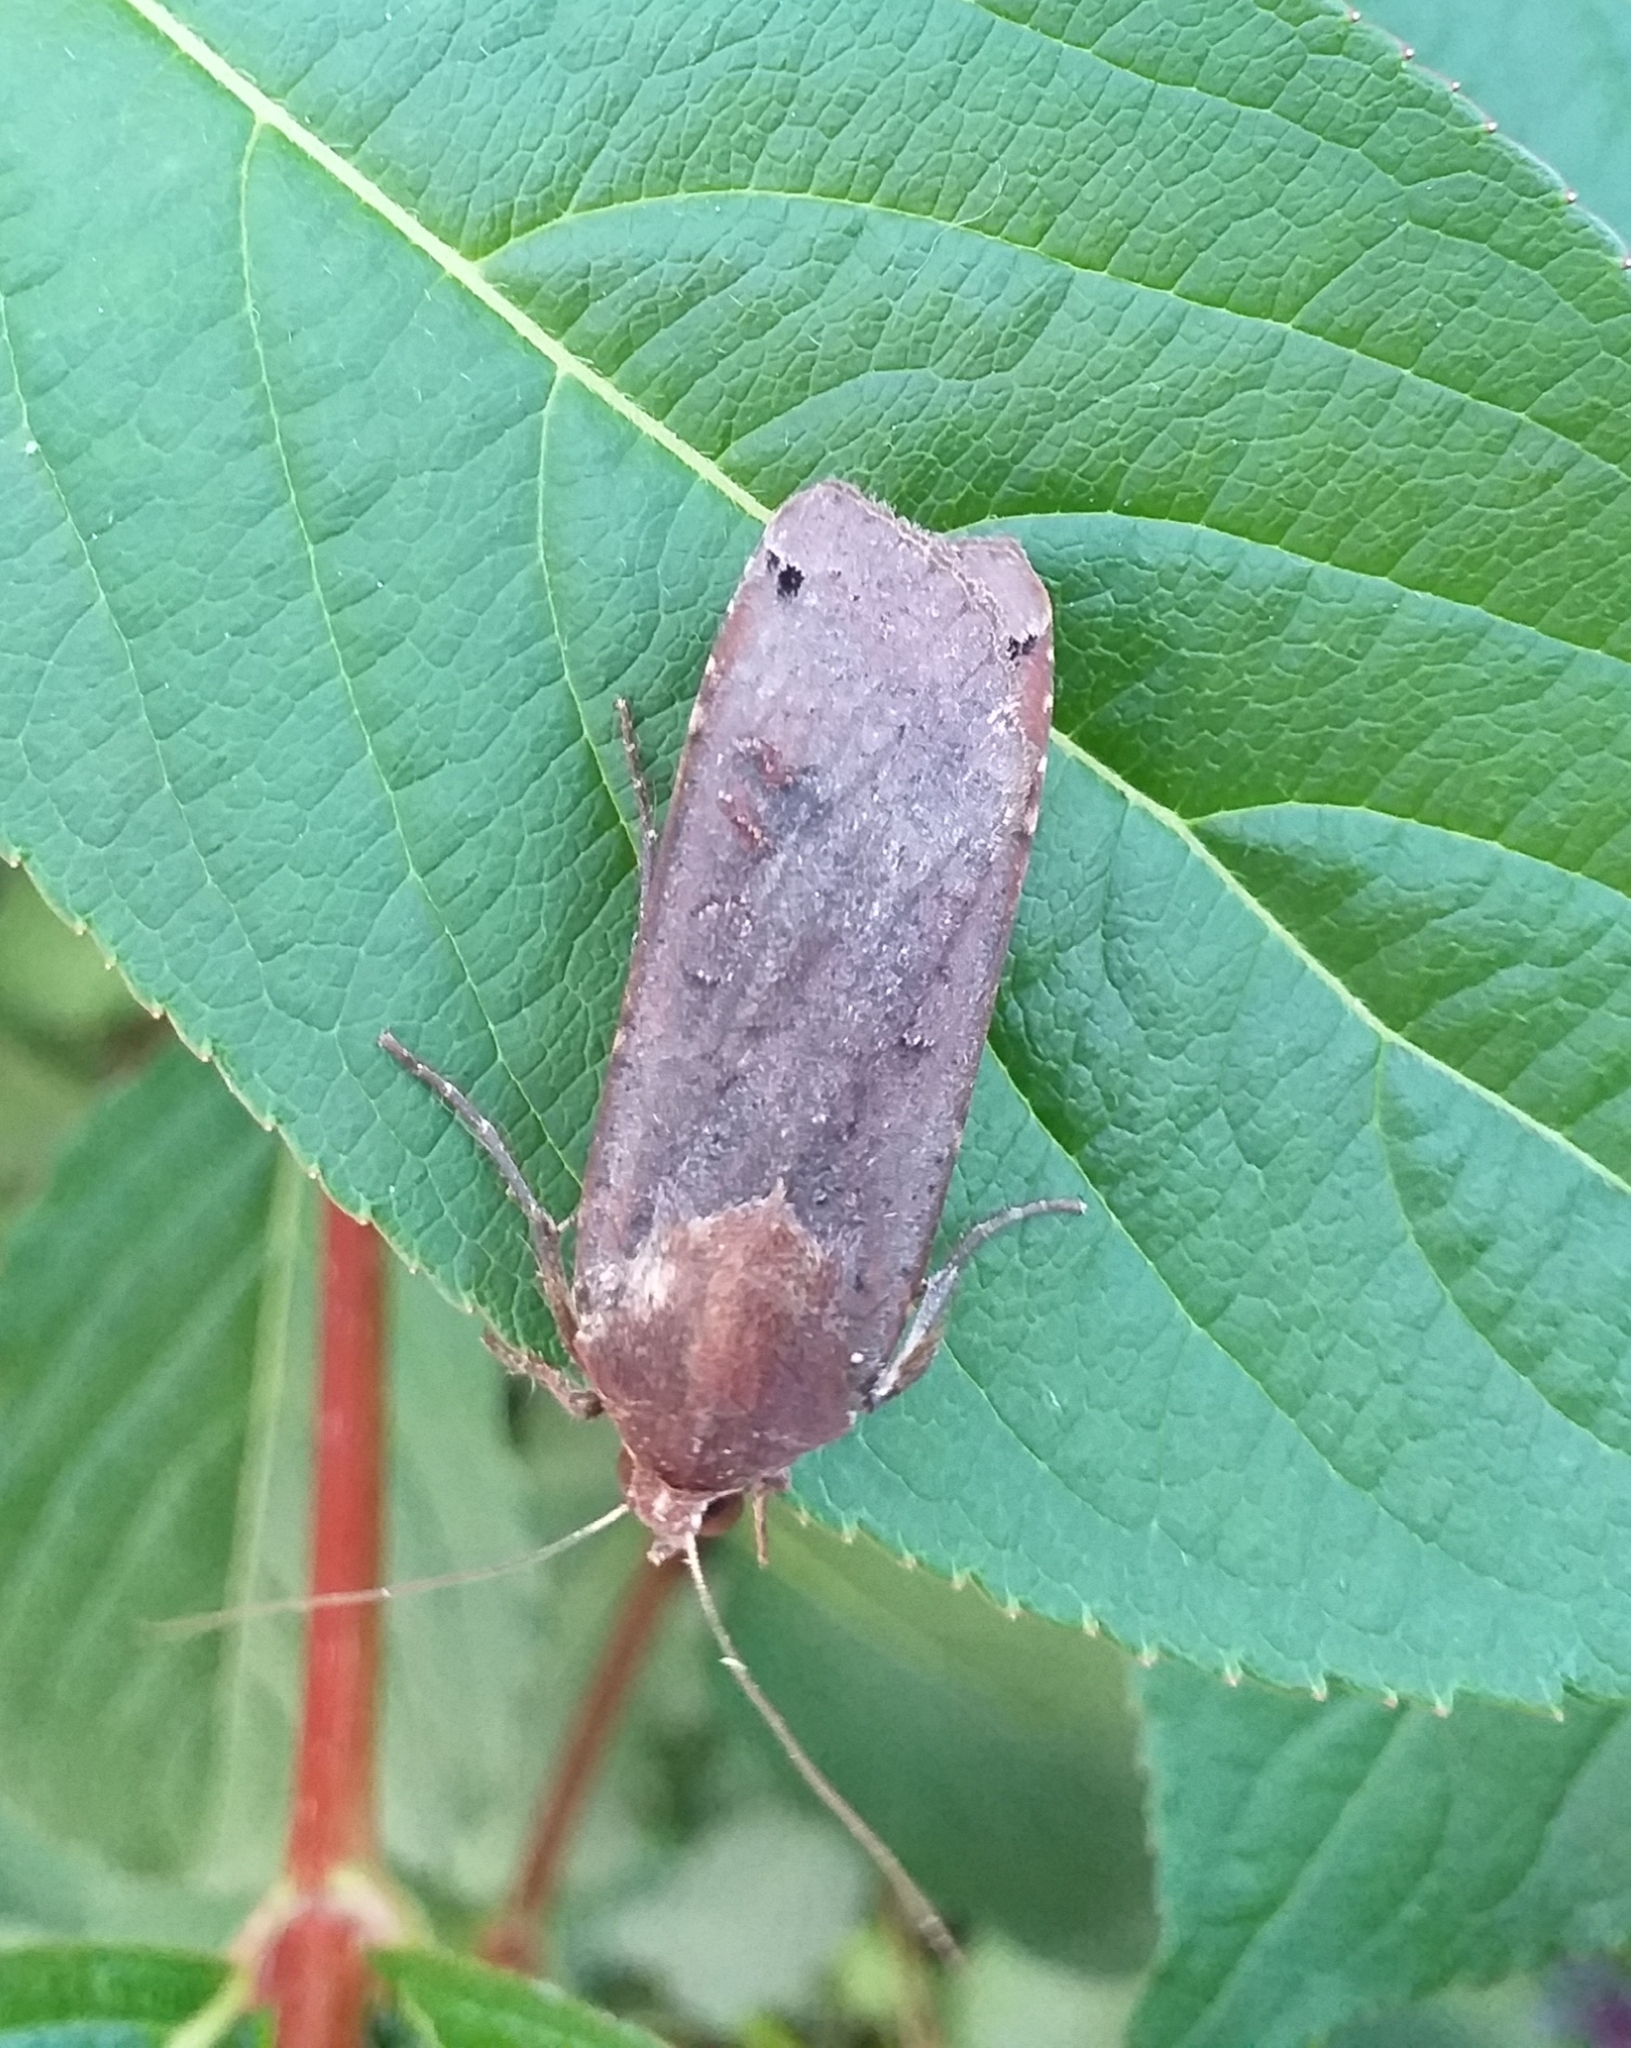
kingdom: Animalia
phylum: Arthropoda
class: Insecta
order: Lepidoptera
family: Noctuidae
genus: Noctua
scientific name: Noctua pronuba
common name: Large yellow underwing
